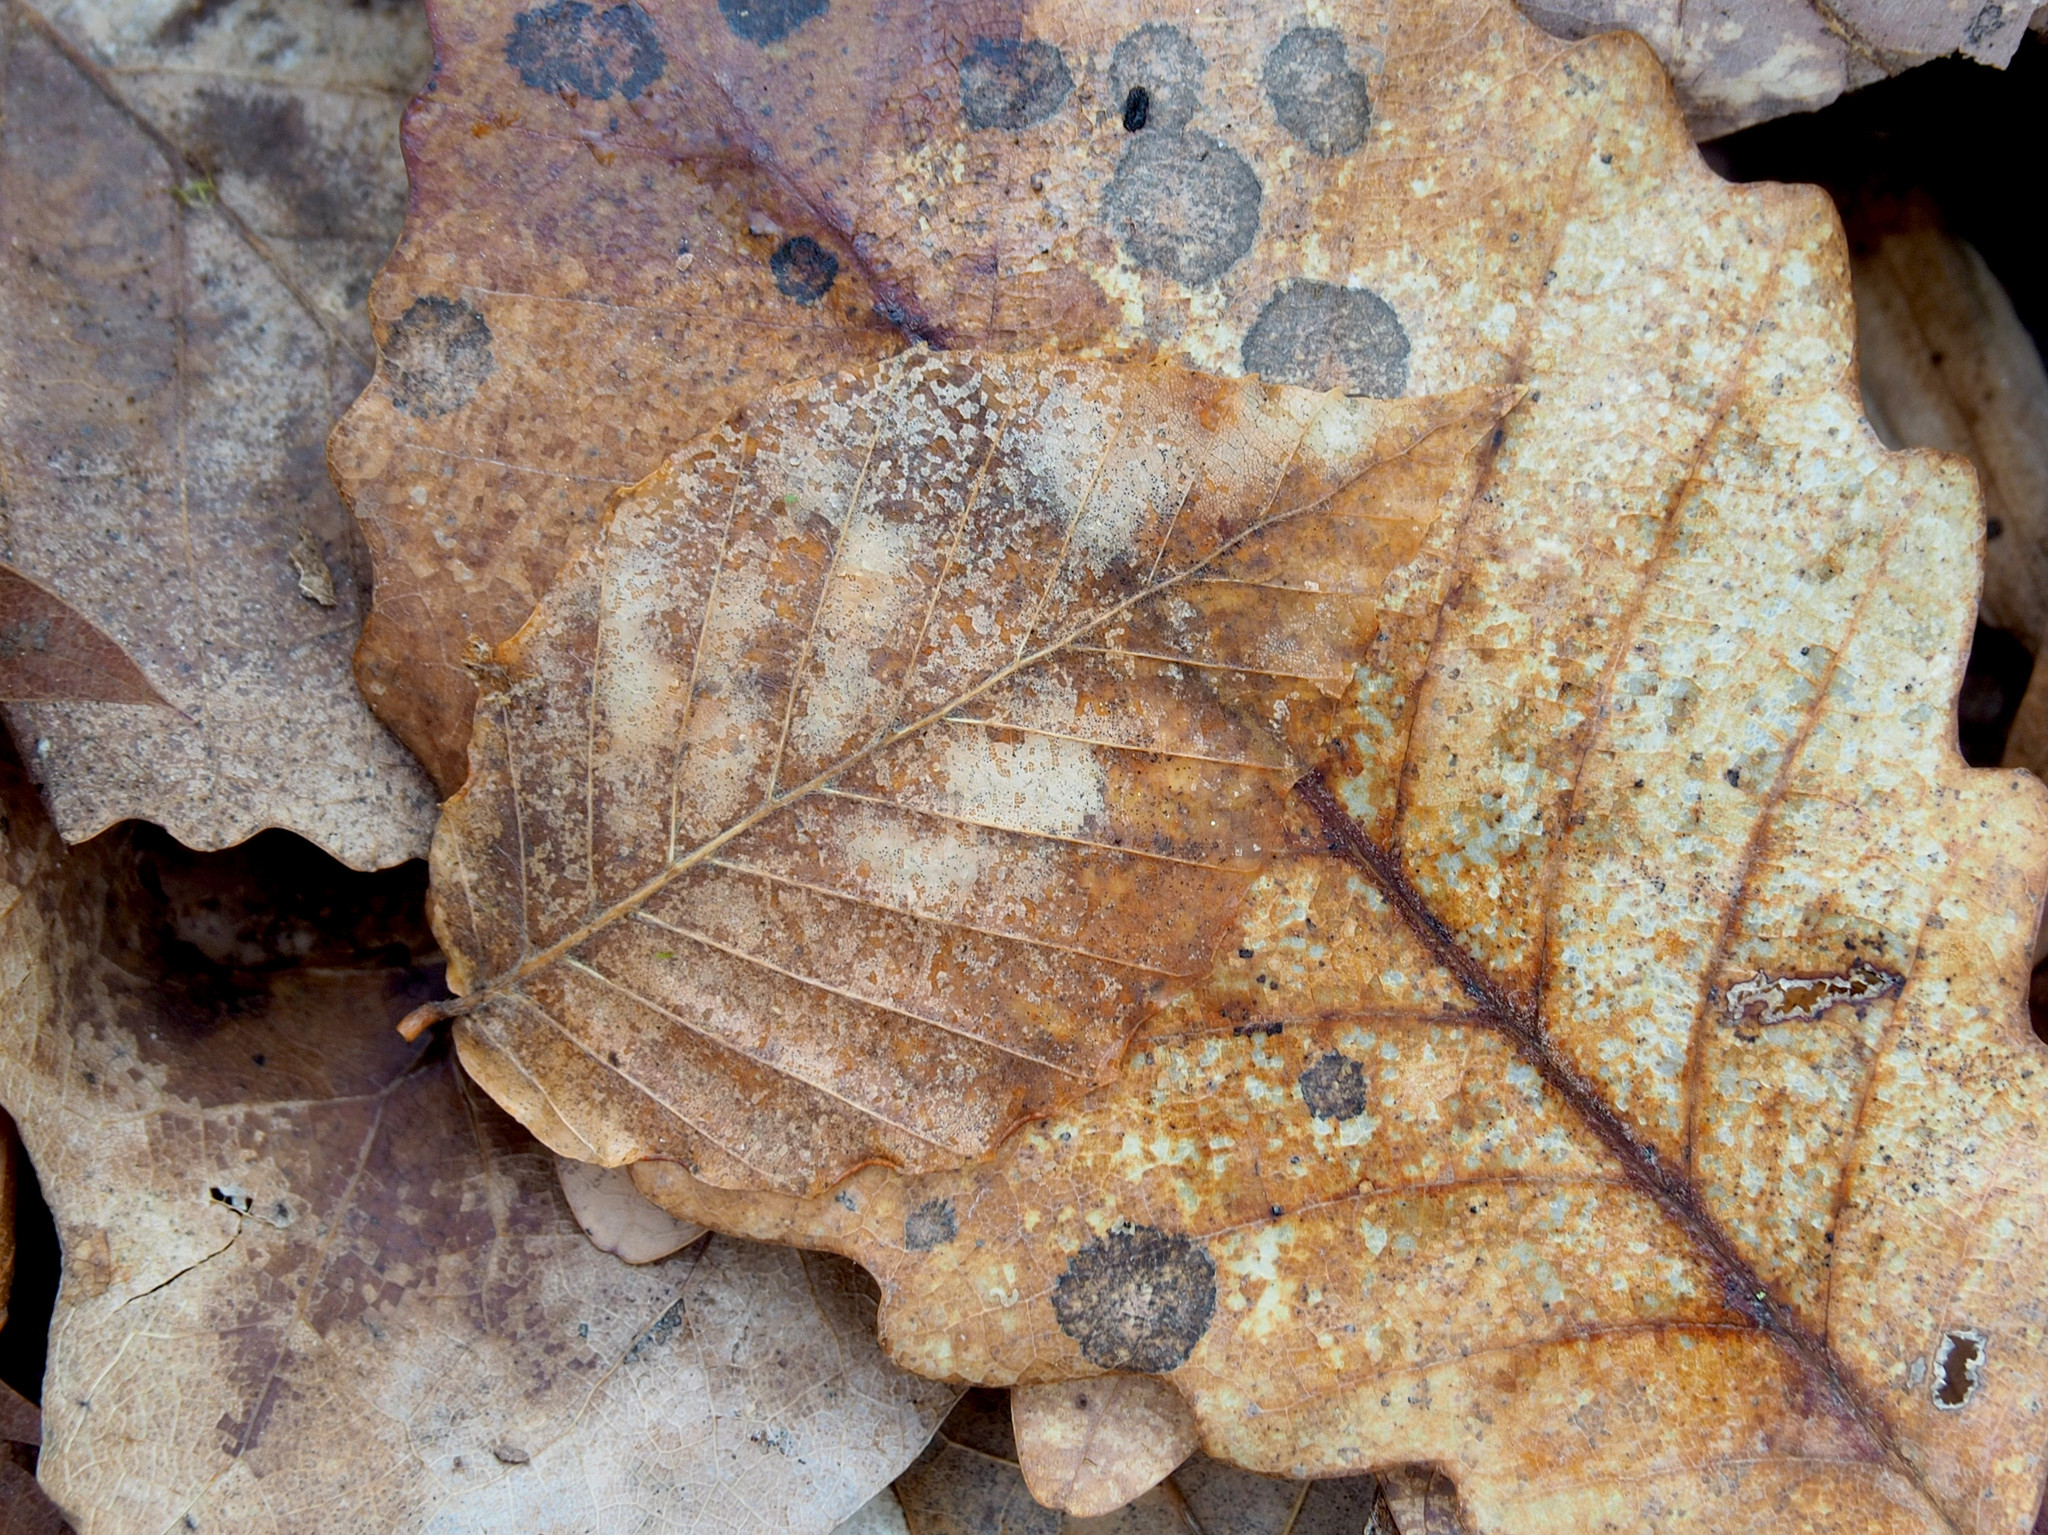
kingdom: Plantae
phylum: Tracheophyta
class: Magnoliopsida
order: Fagales
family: Fagaceae
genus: Fagus
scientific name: Fagus grandifolia
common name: American beech
